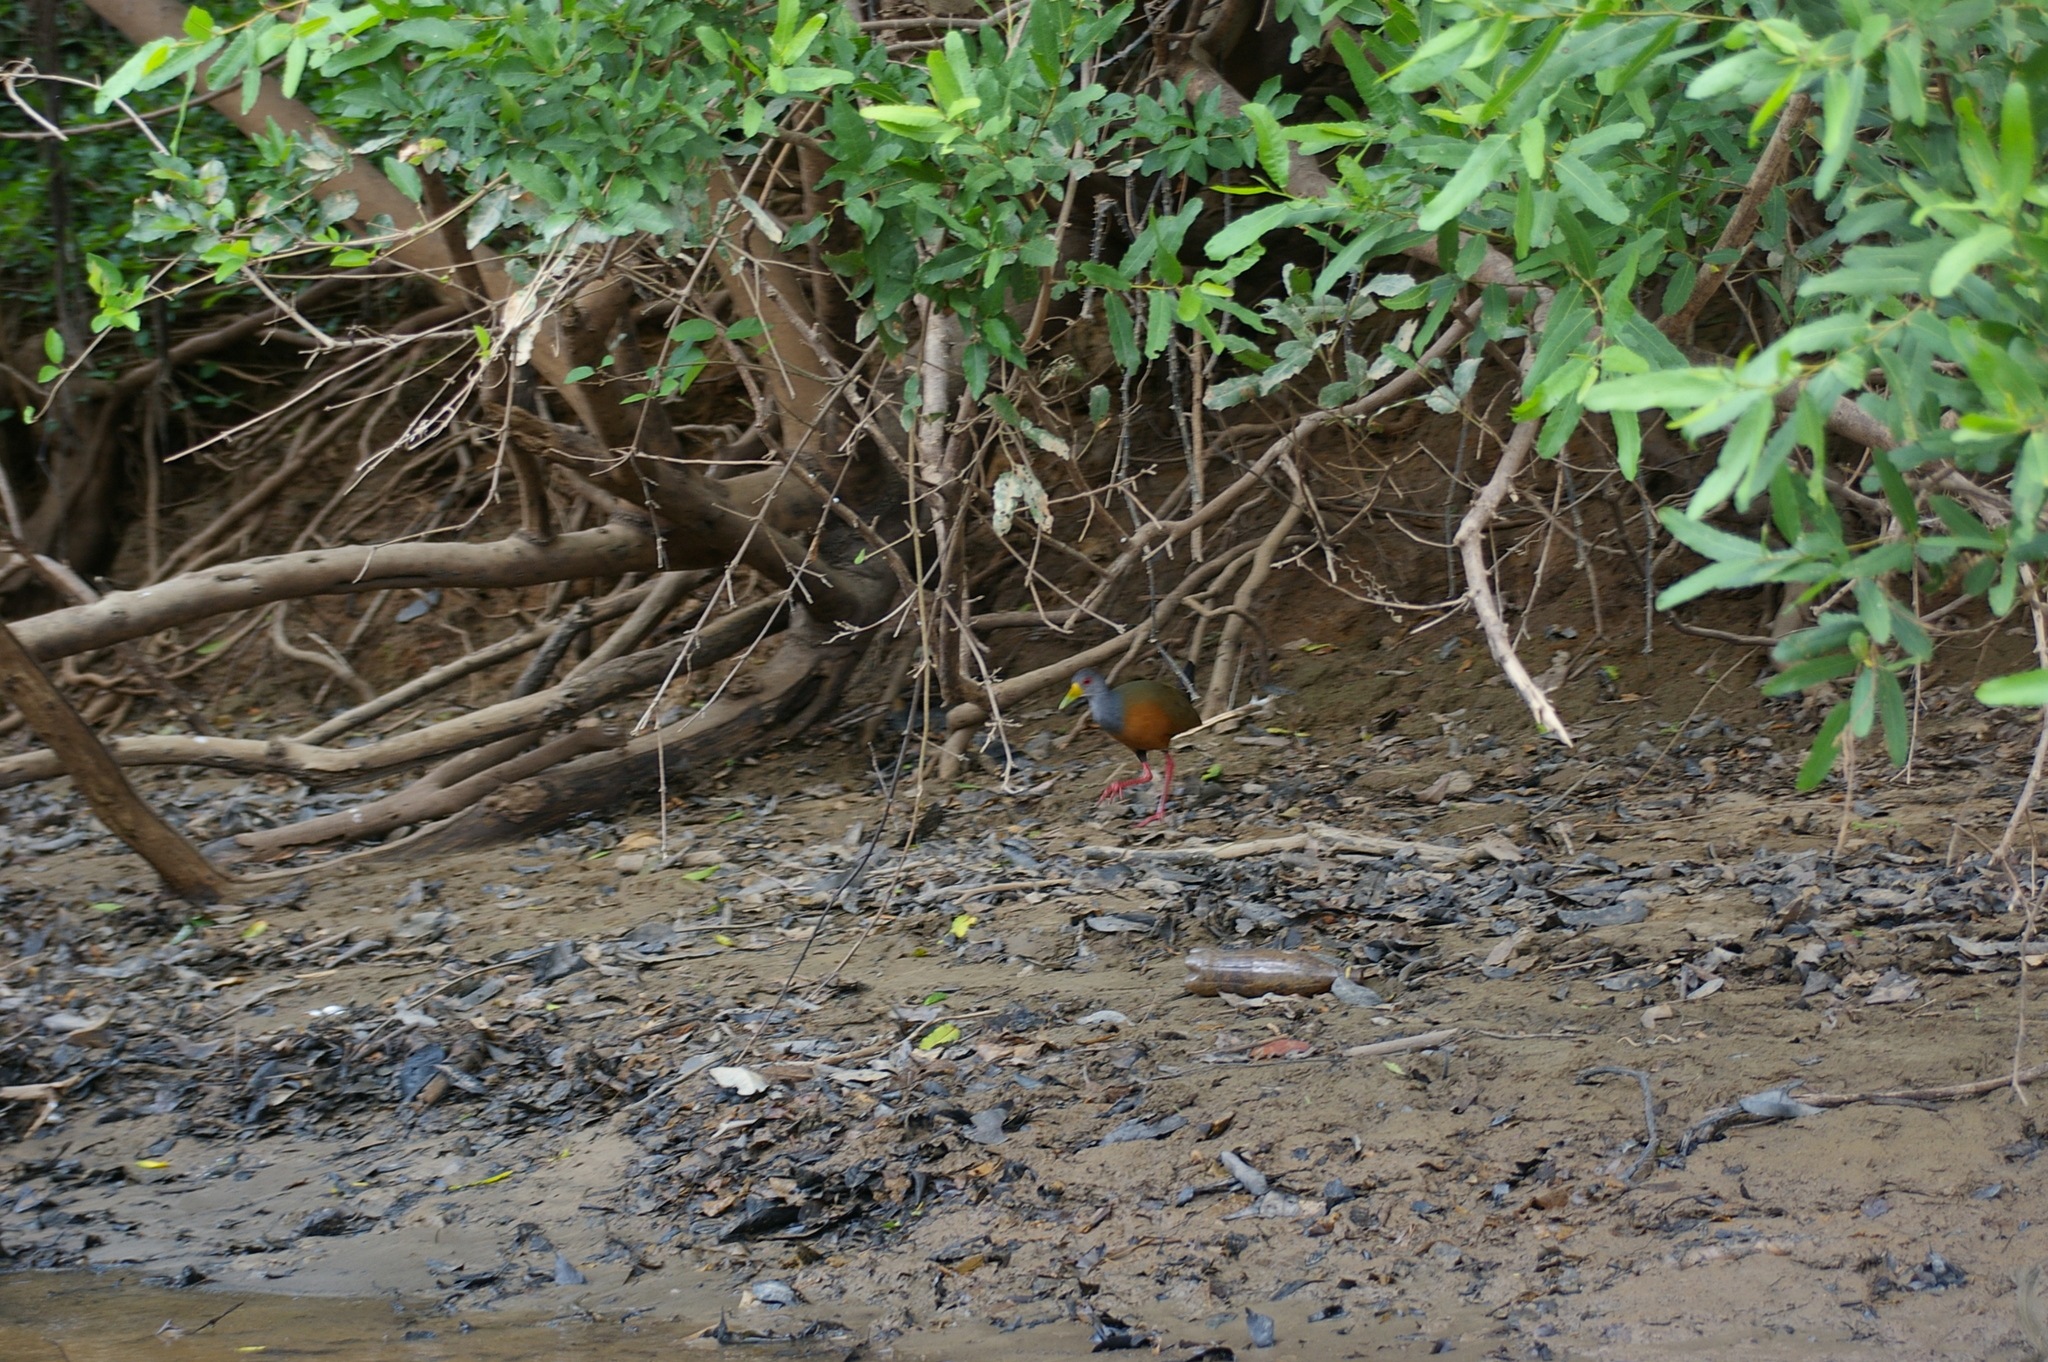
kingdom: Animalia
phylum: Chordata
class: Aves
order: Gruiformes
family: Rallidae
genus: Aramides
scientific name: Aramides cajanea
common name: Gray-necked wood-rail
